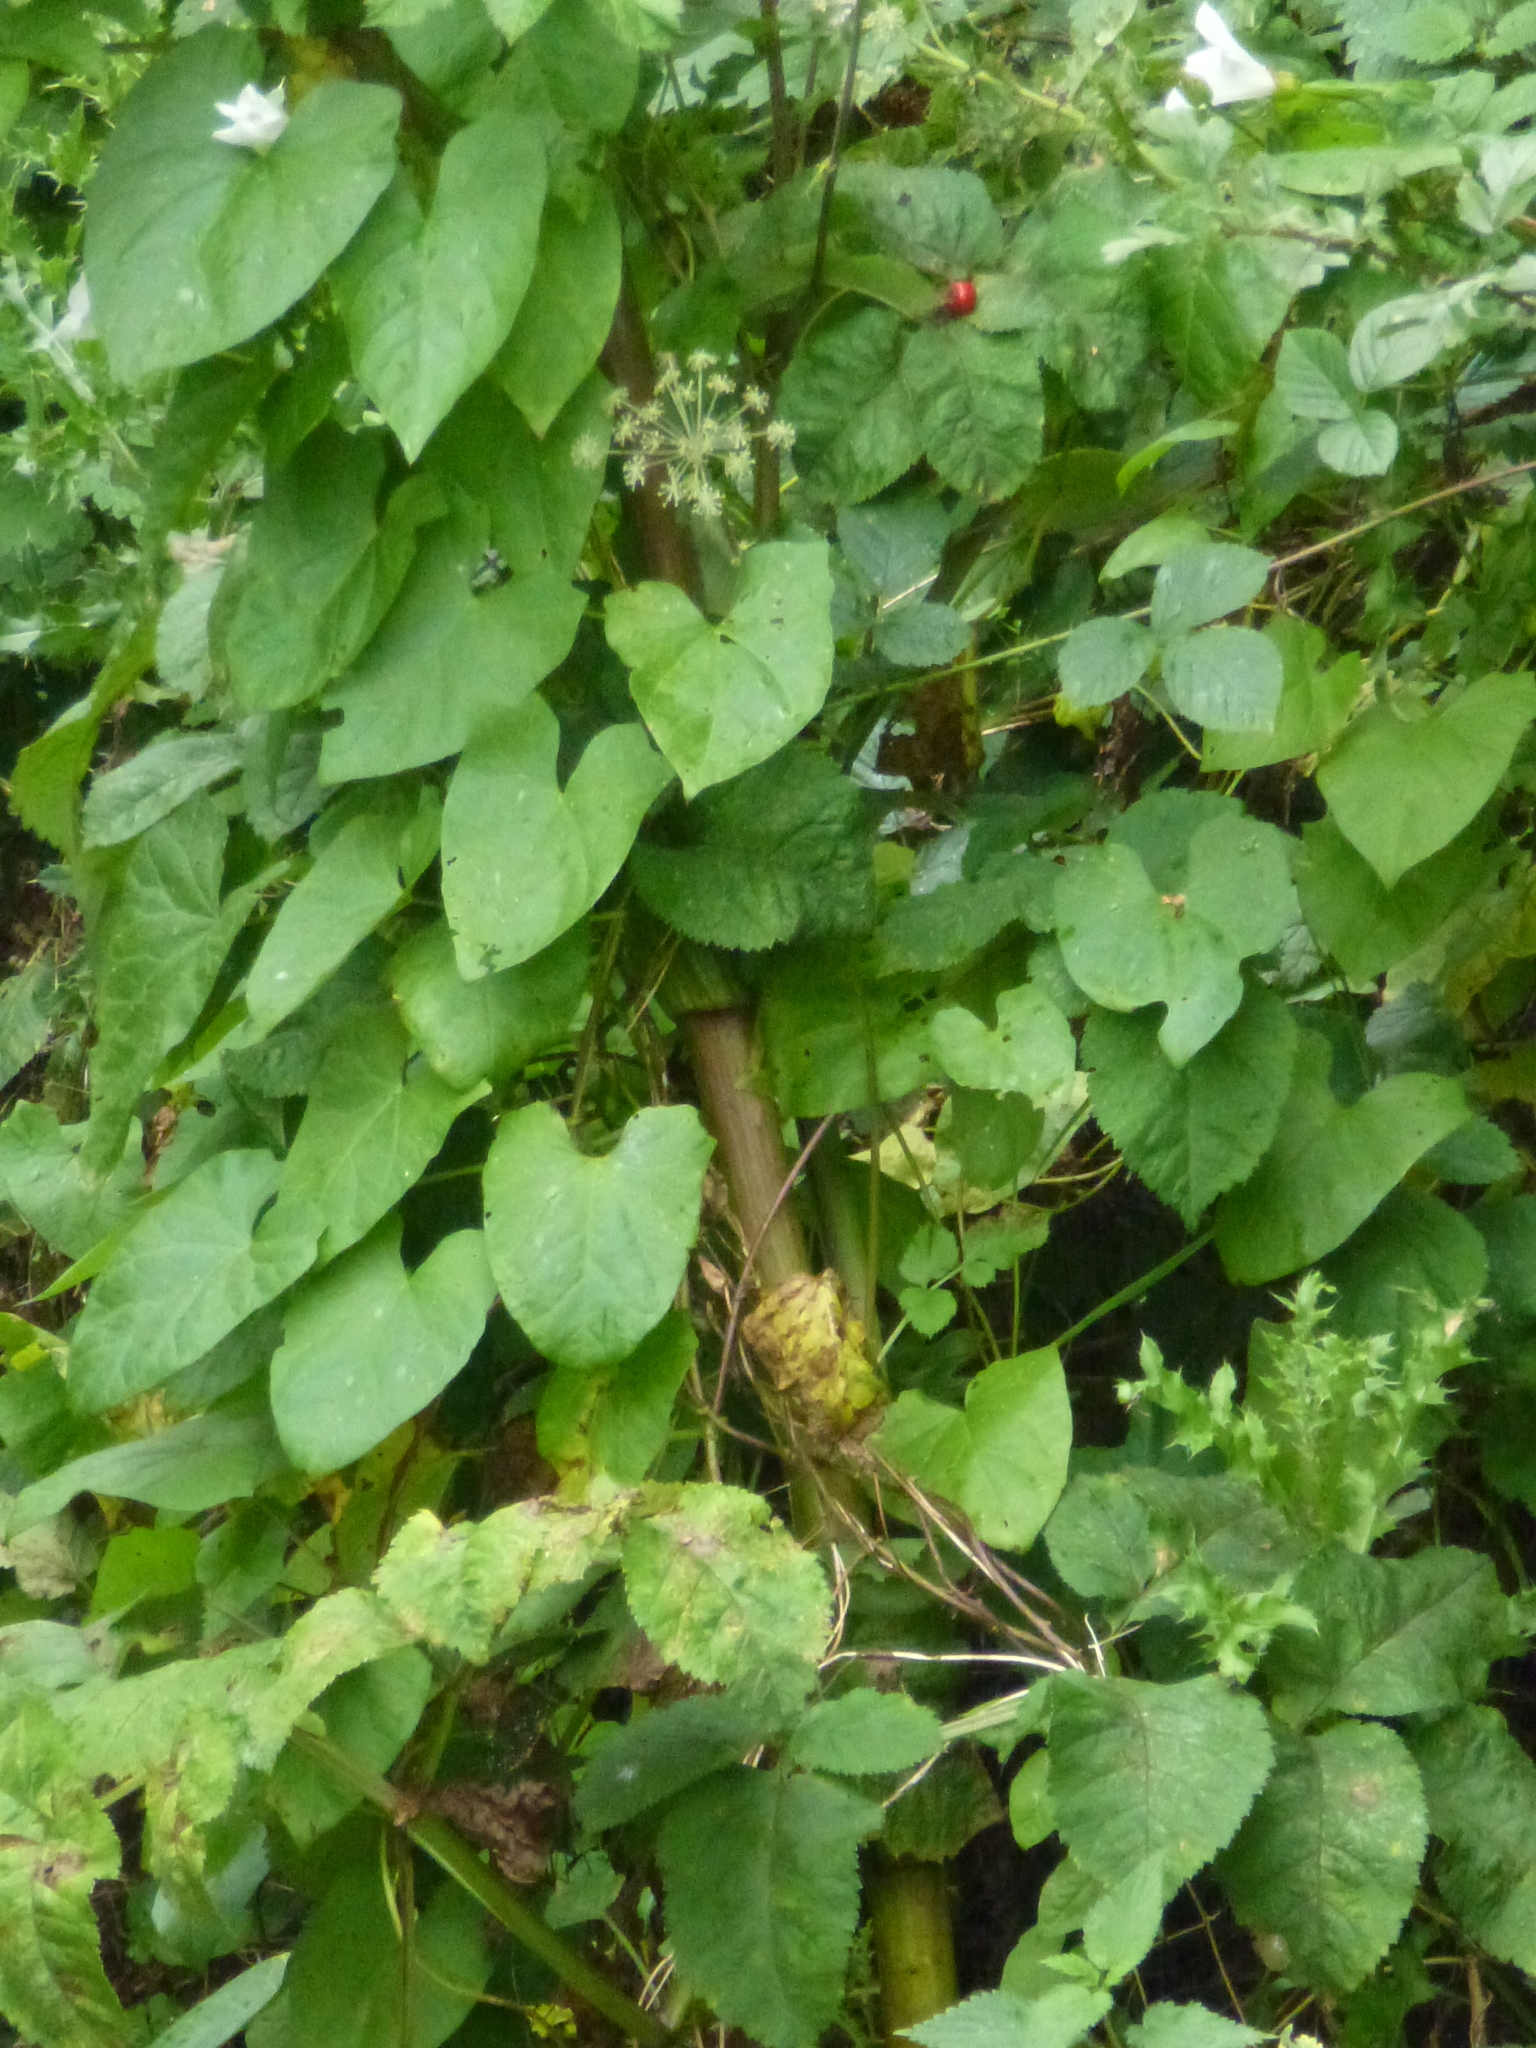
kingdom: Plantae
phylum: Tracheophyta
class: Magnoliopsida
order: Apiales
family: Apiaceae
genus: Angelica
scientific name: Angelica sylvestris
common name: Wild angelica
